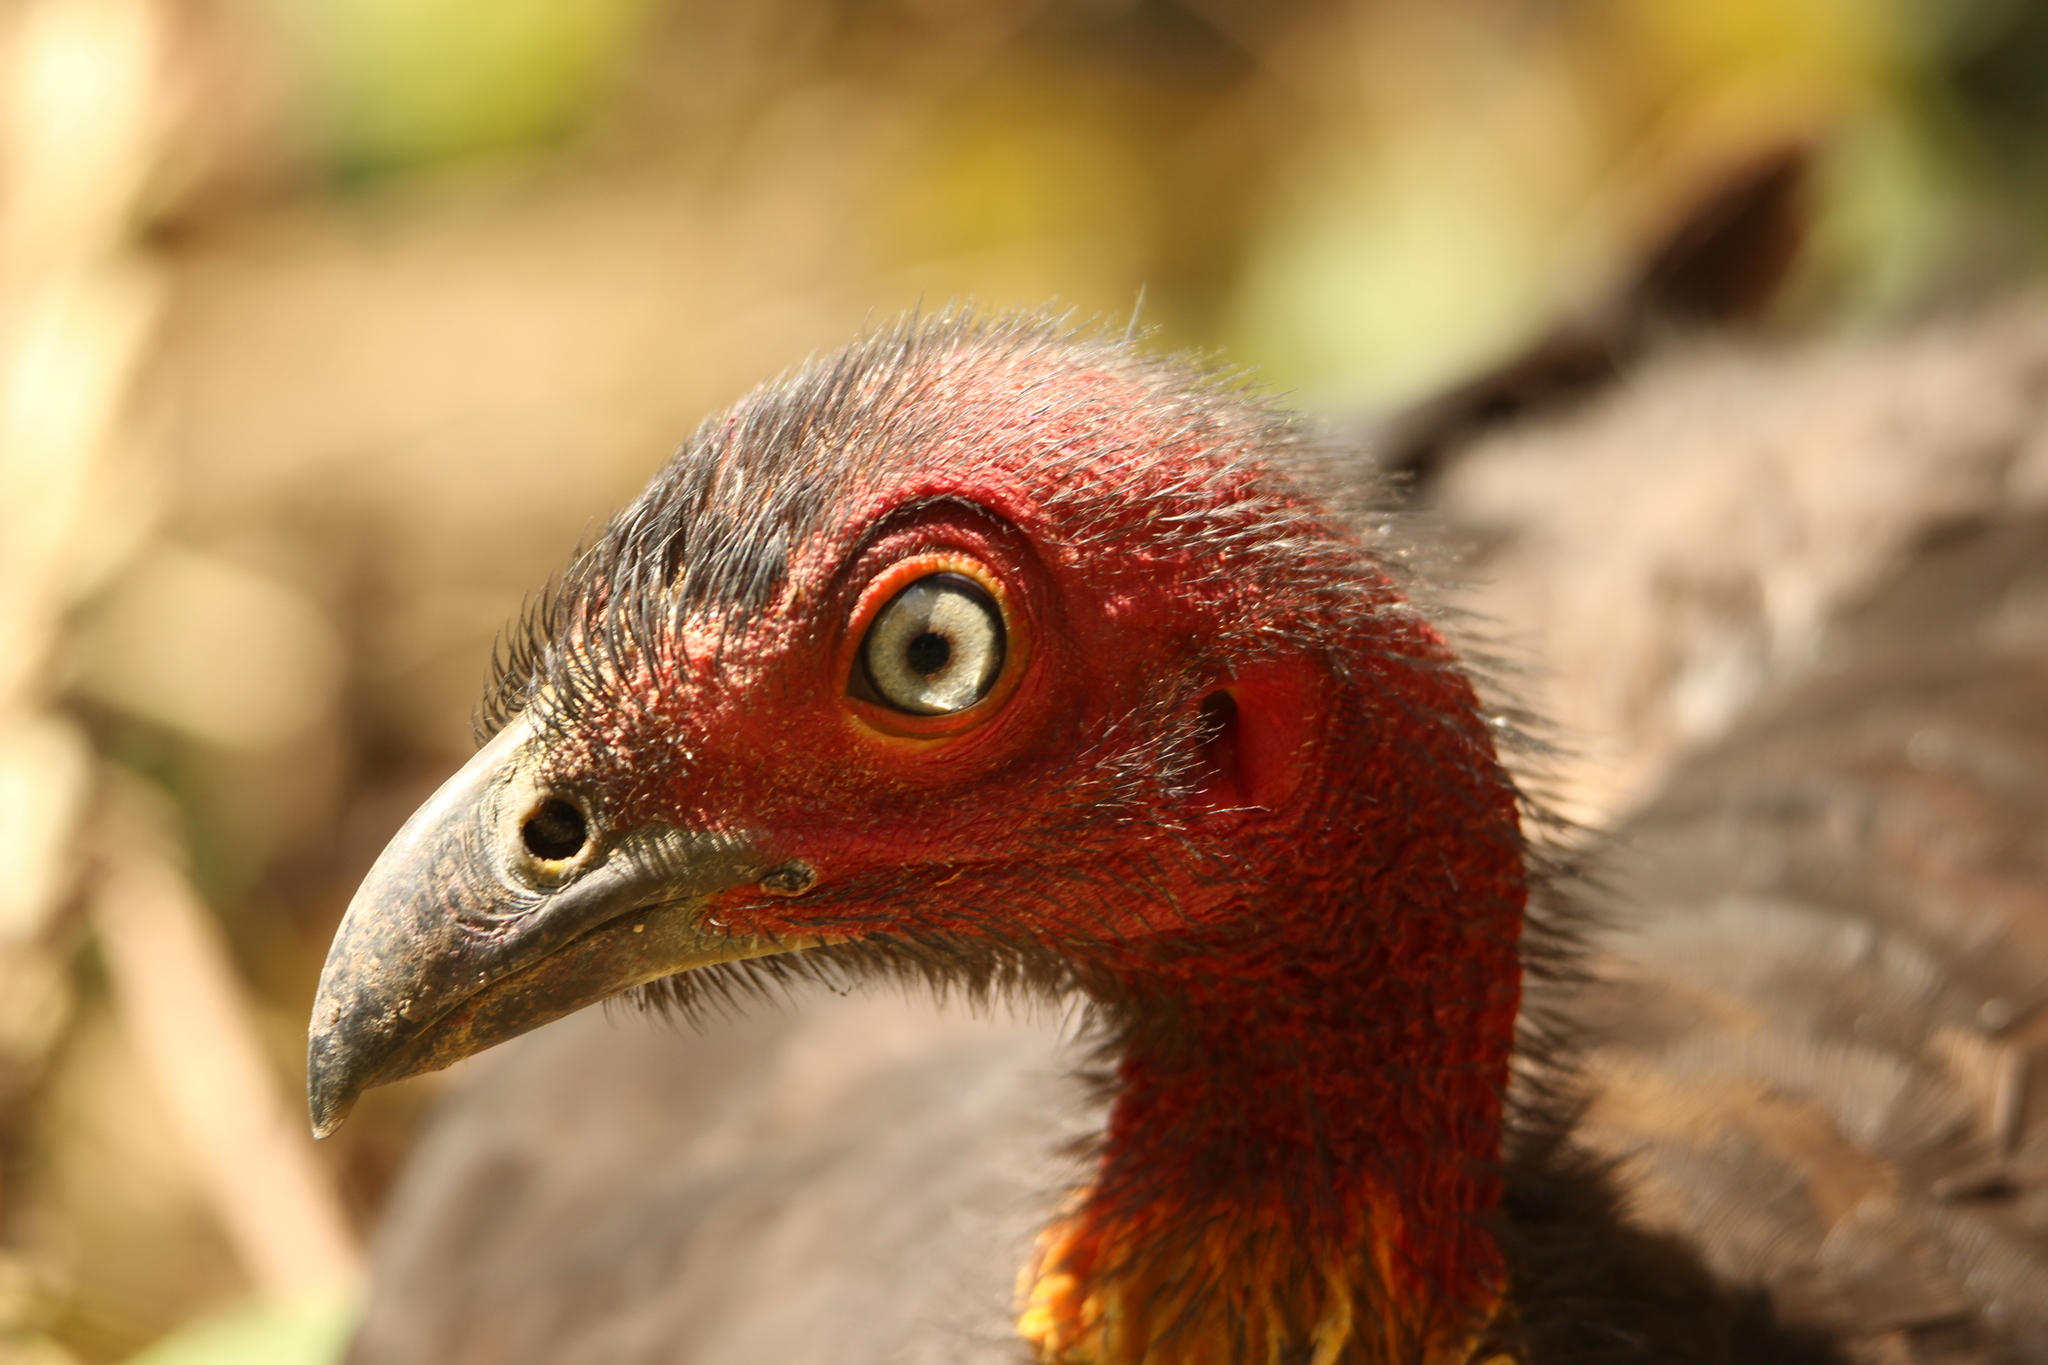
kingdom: Animalia
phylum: Chordata
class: Aves
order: Galliformes
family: Megapodiidae
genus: Alectura
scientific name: Alectura lathami
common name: Australian brushturkey
